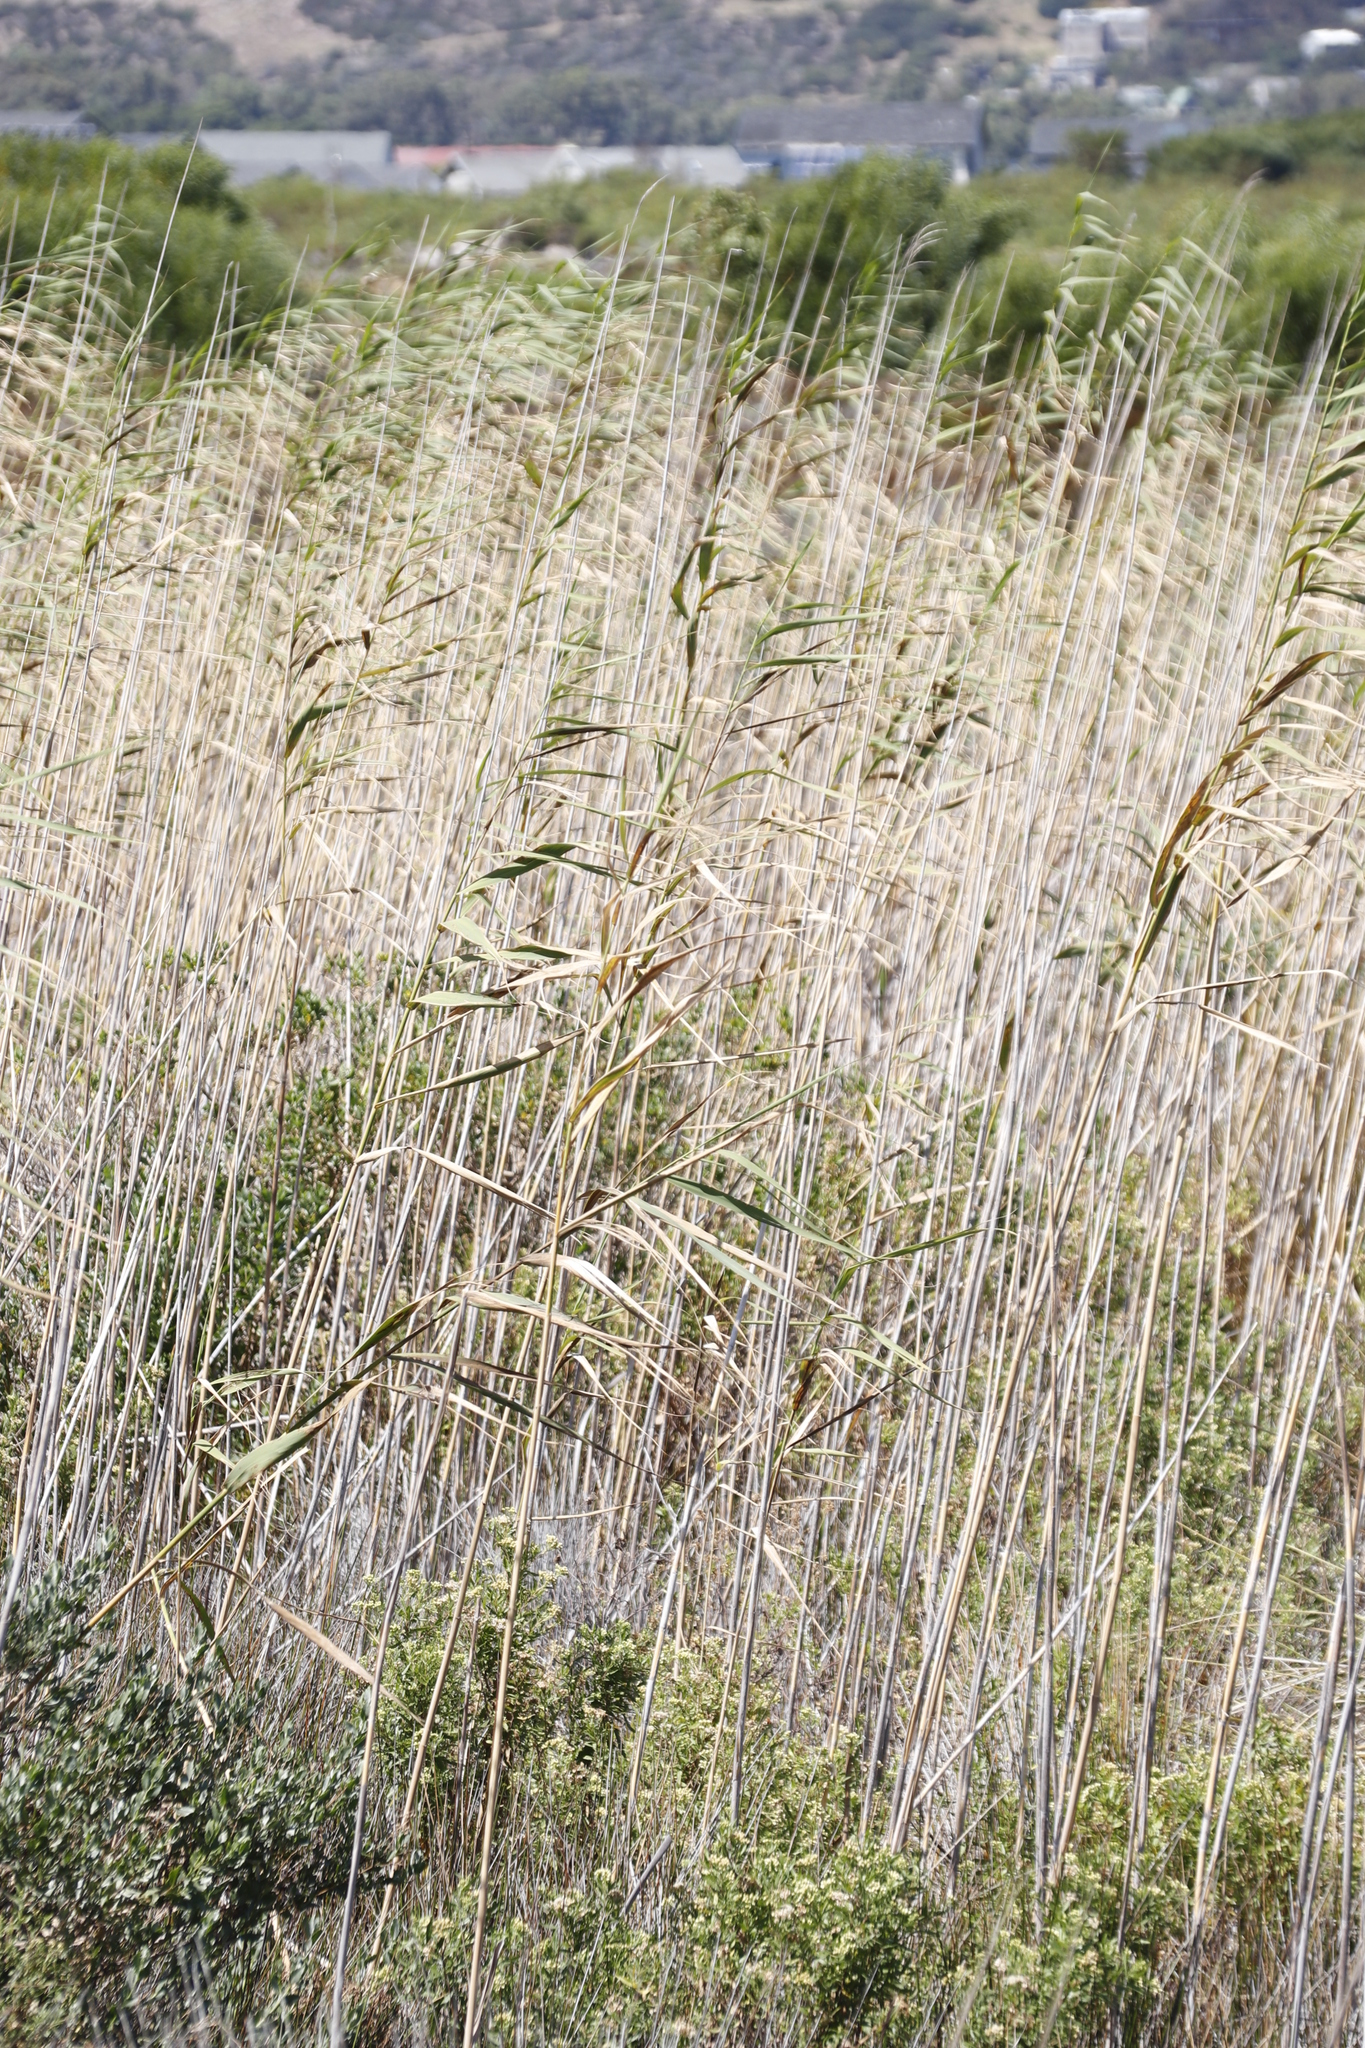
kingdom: Plantae
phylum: Tracheophyta
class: Liliopsida
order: Poales
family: Poaceae
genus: Phragmites
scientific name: Phragmites australis
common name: Common reed
